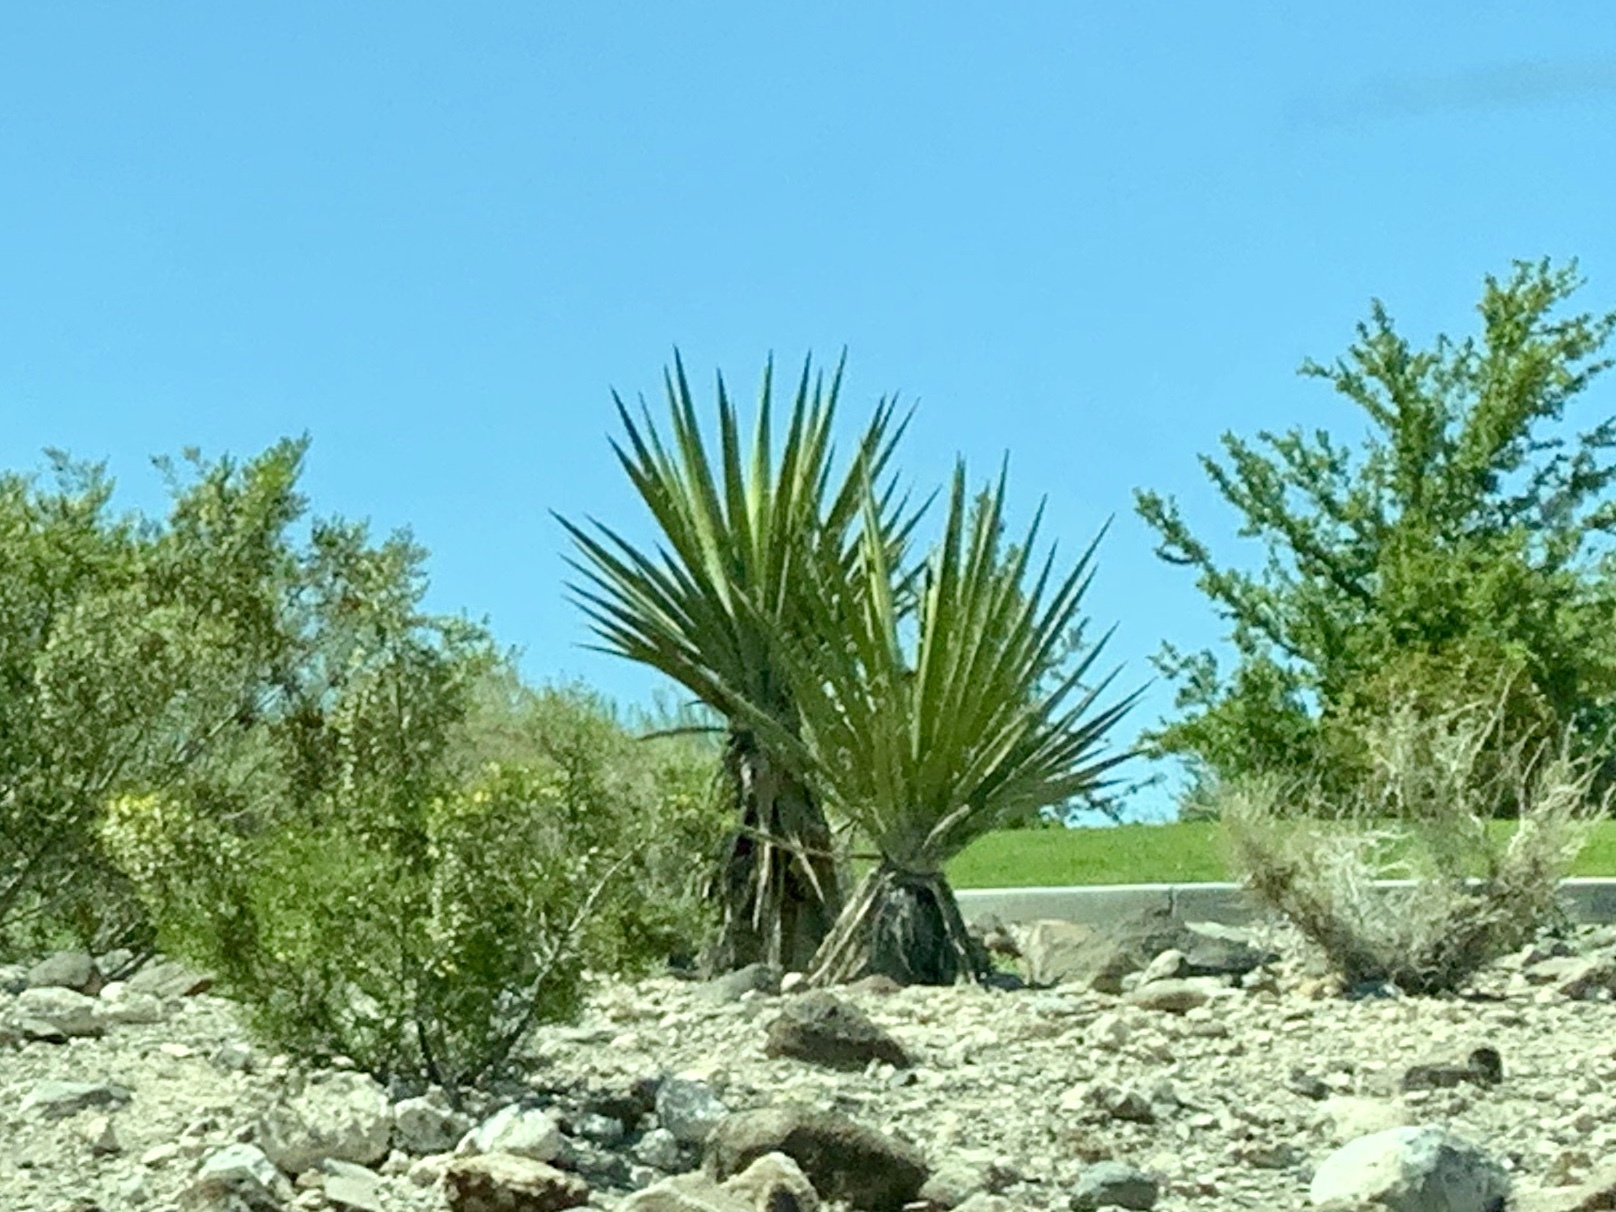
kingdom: Plantae
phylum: Tracheophyta
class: Liliopsida
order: Asparagales
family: Asparagaceae
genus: Yucca
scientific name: Yucca schidigera
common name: Mojave yucca
